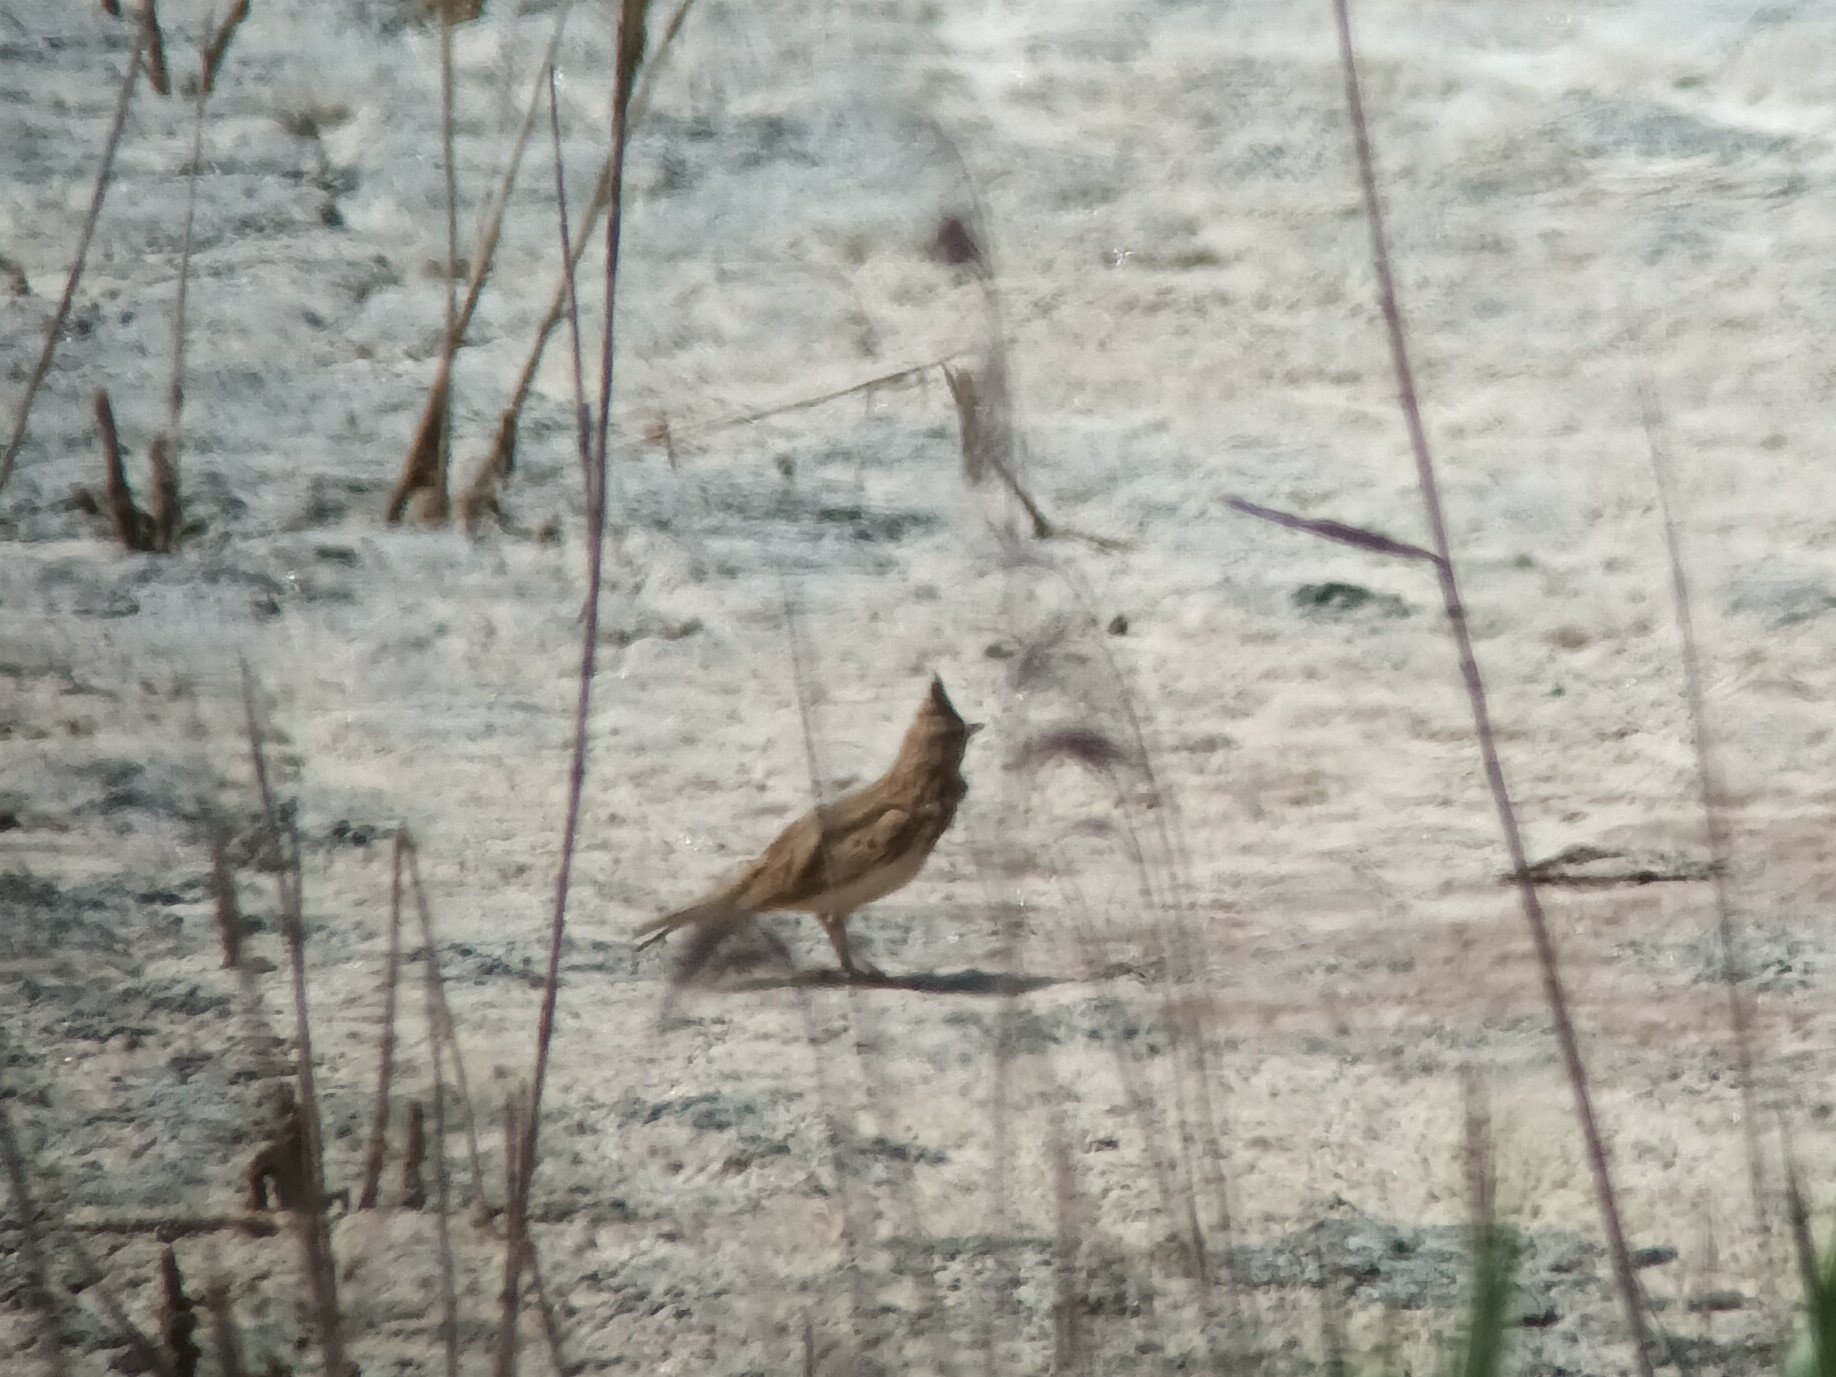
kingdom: Animalia
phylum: Chordata
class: Aves
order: Passeriformes
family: Alaudidae
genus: Galerida
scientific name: Galerida cristata
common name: Crested lark
